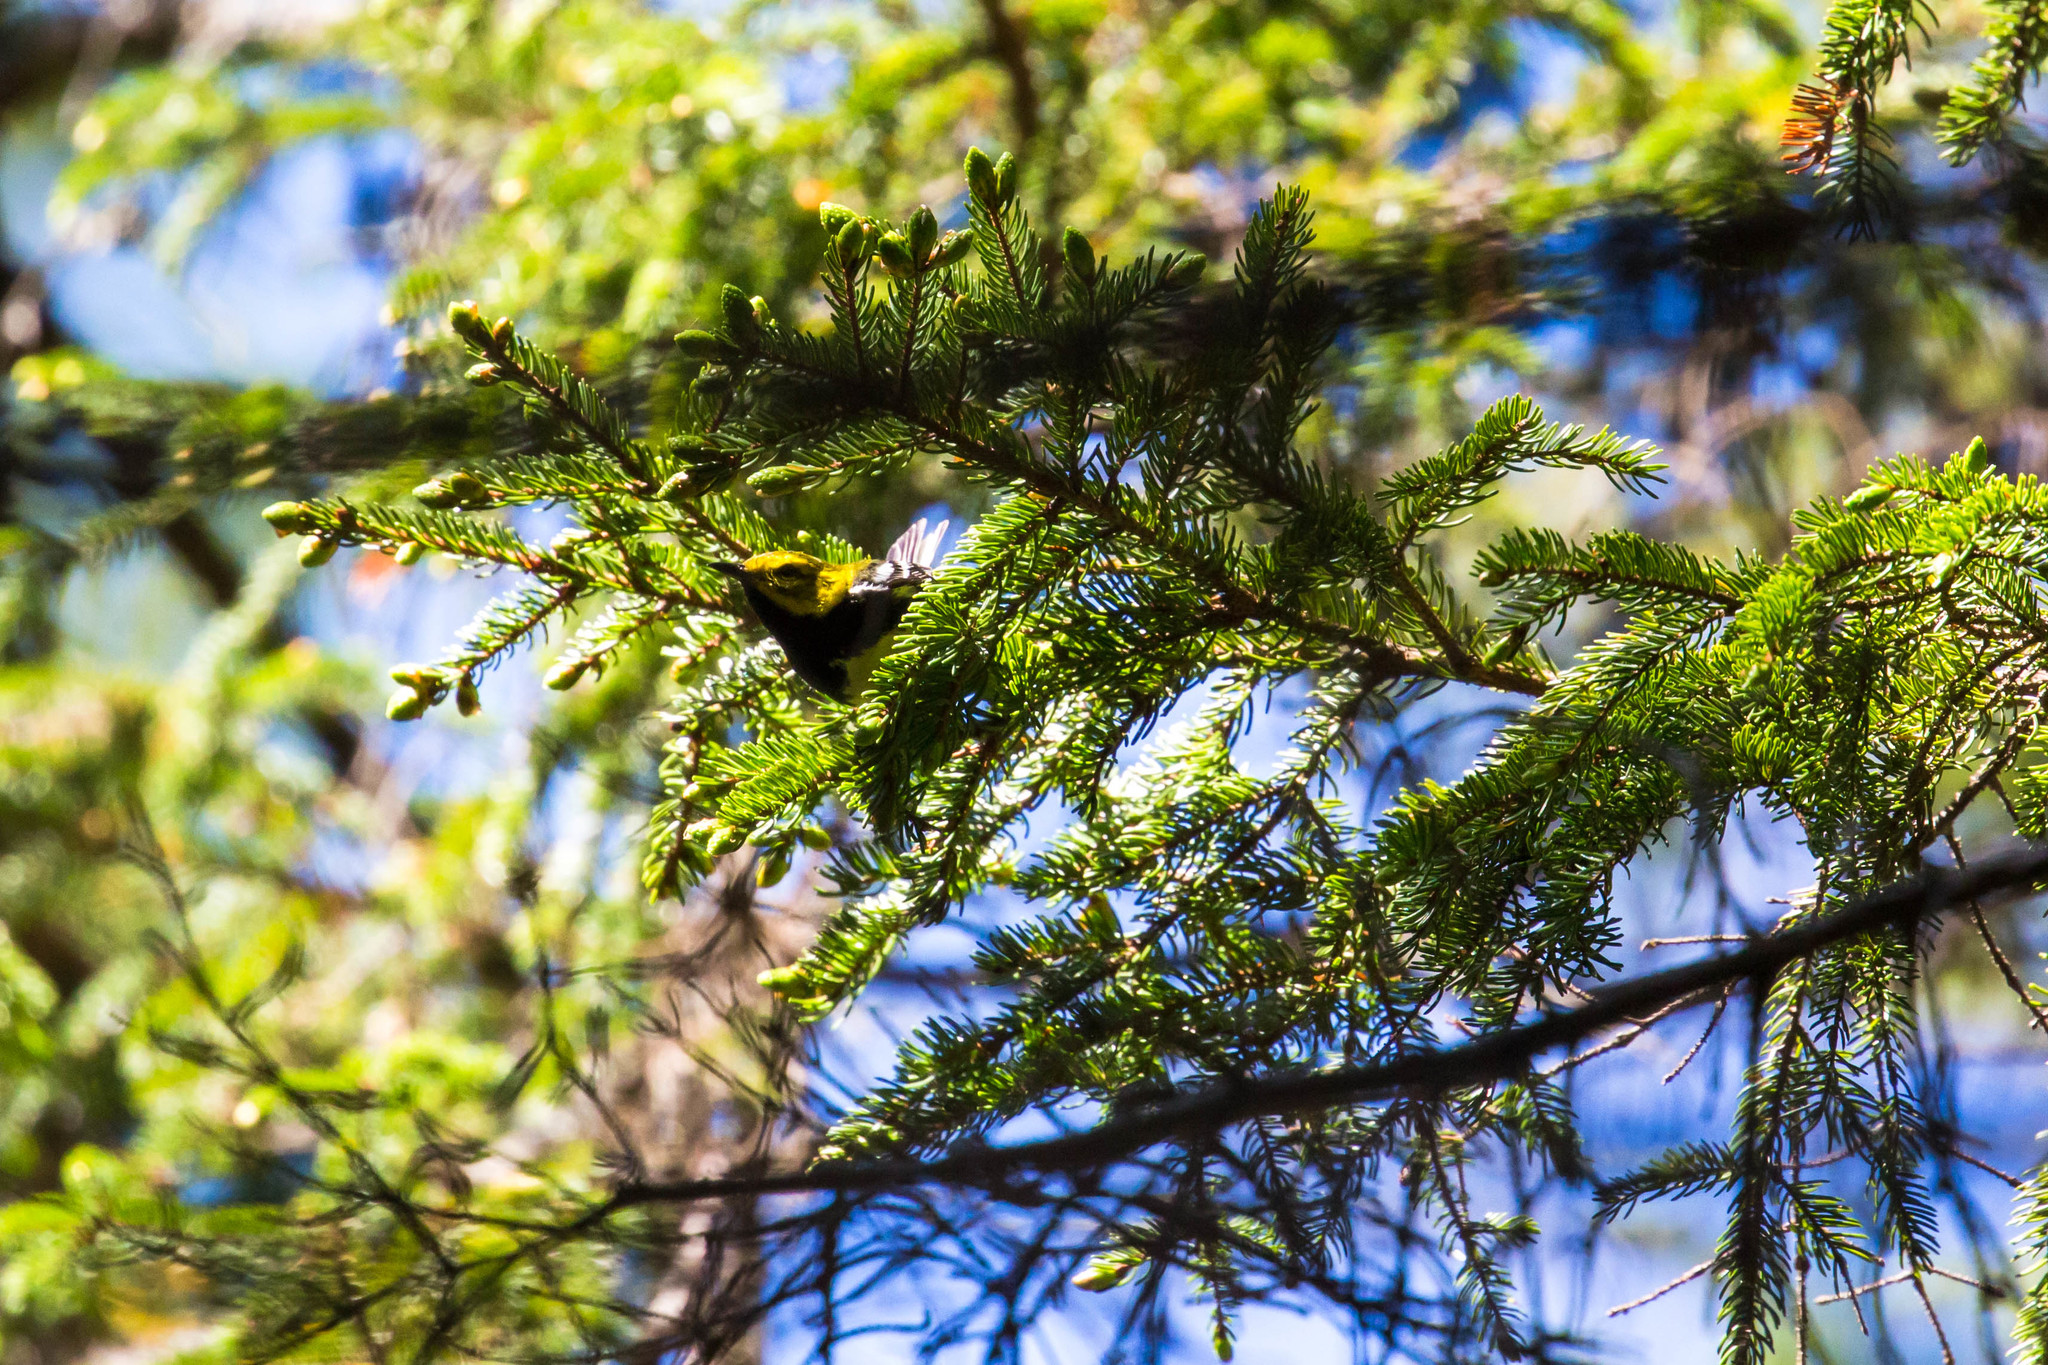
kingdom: Animalia
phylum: Chordata
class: Aves
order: Passeriformes
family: Parulidae
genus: Setophaga
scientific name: Setophaga virens
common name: Black-throated green warbler
